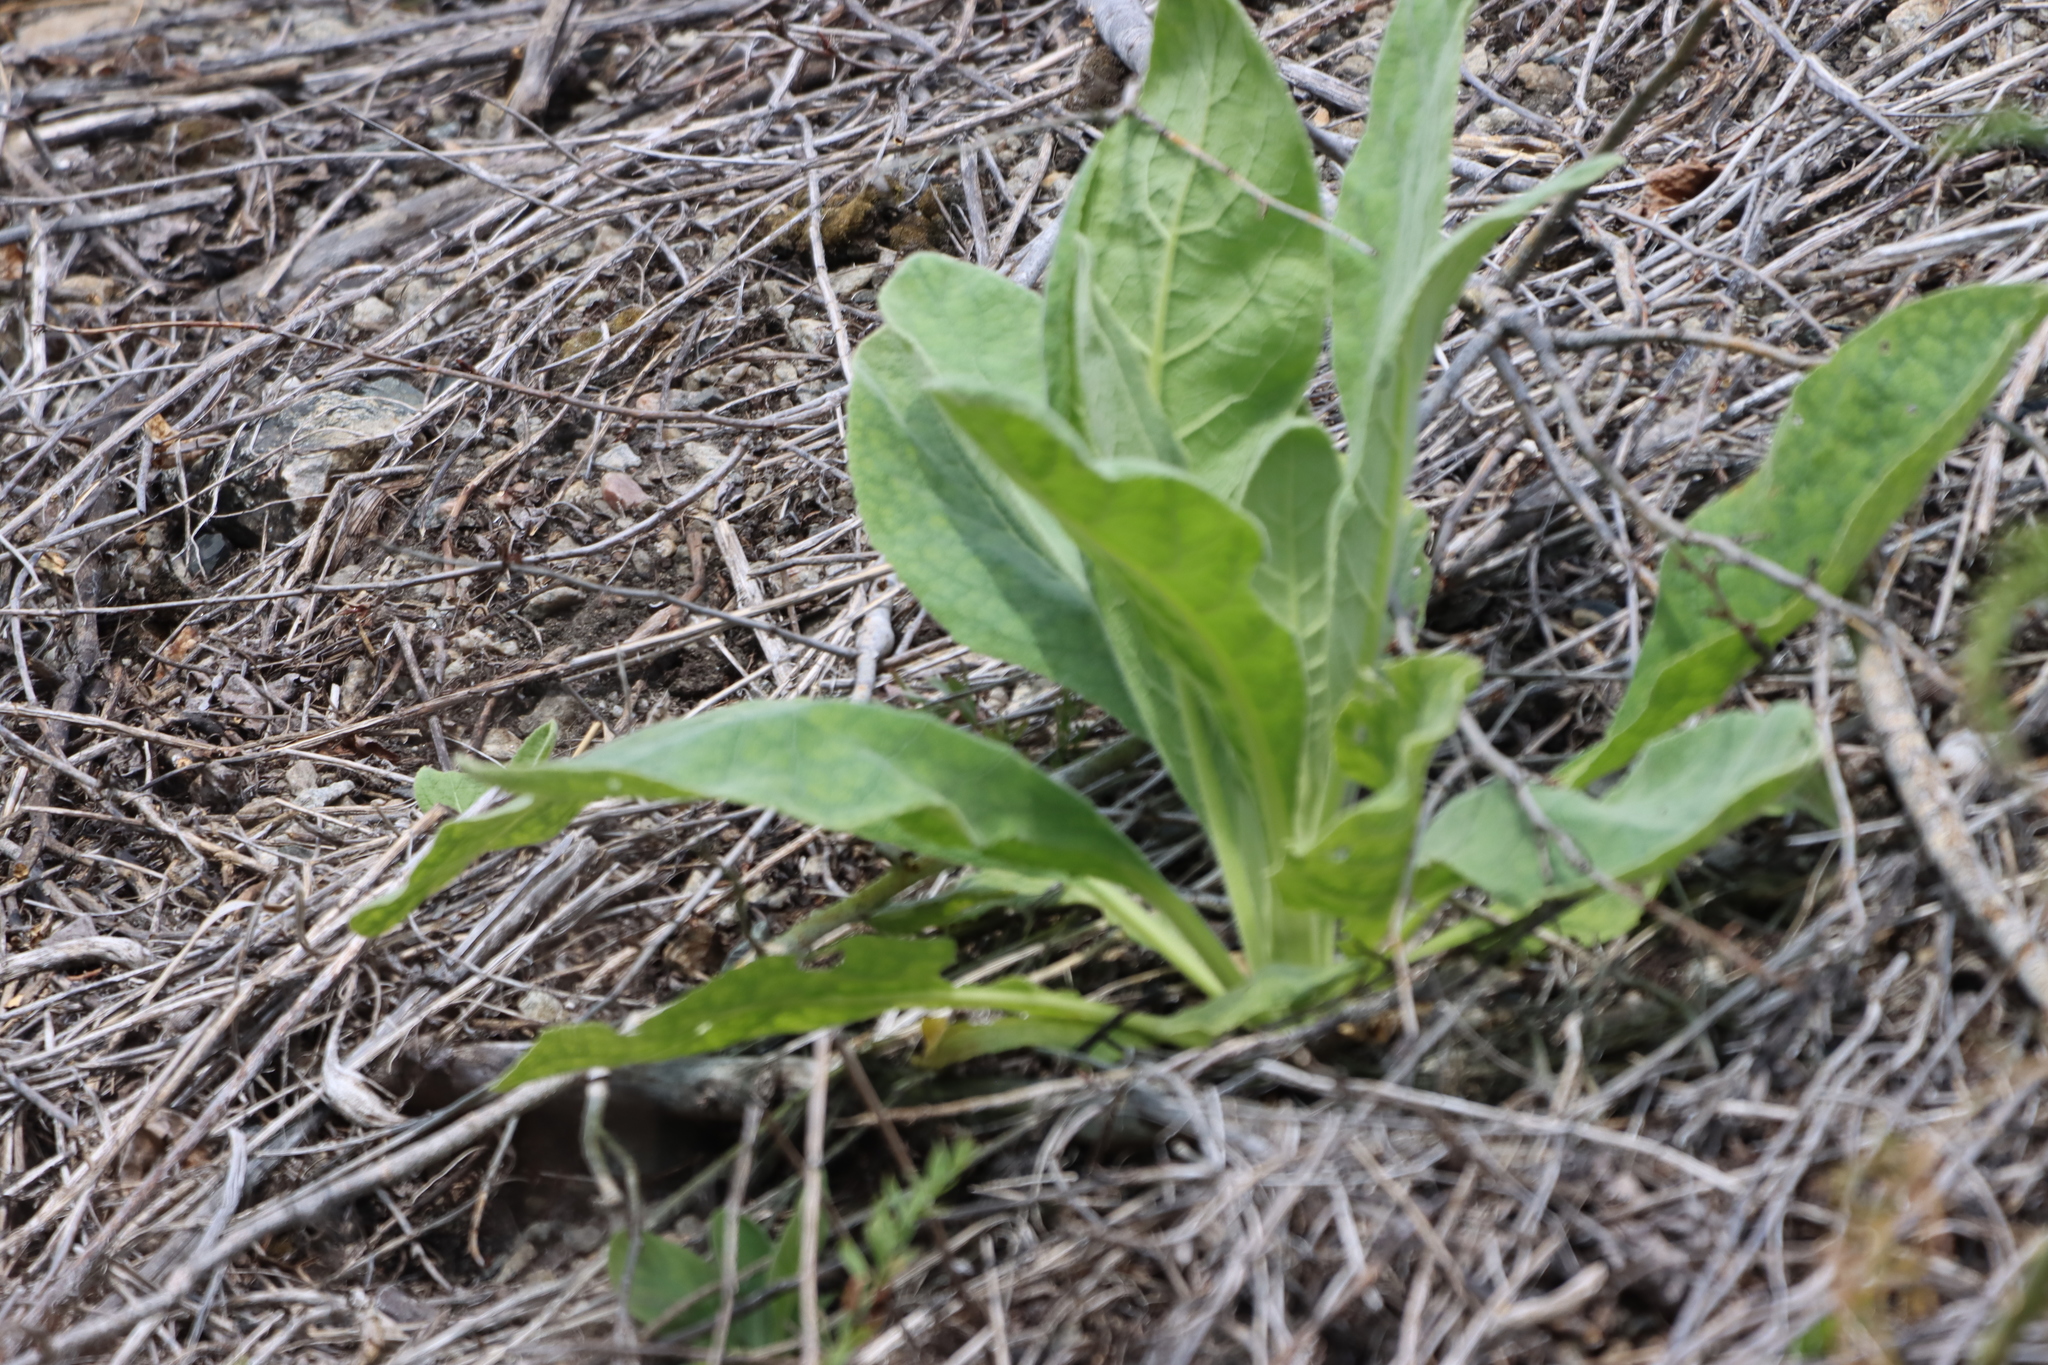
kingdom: Plantae
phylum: Tracheophyta
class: Magnoliopsida
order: Lamiales
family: Scrophulariaceae
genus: Verbascum
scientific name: Verbascum thapsus
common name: Common mullein
